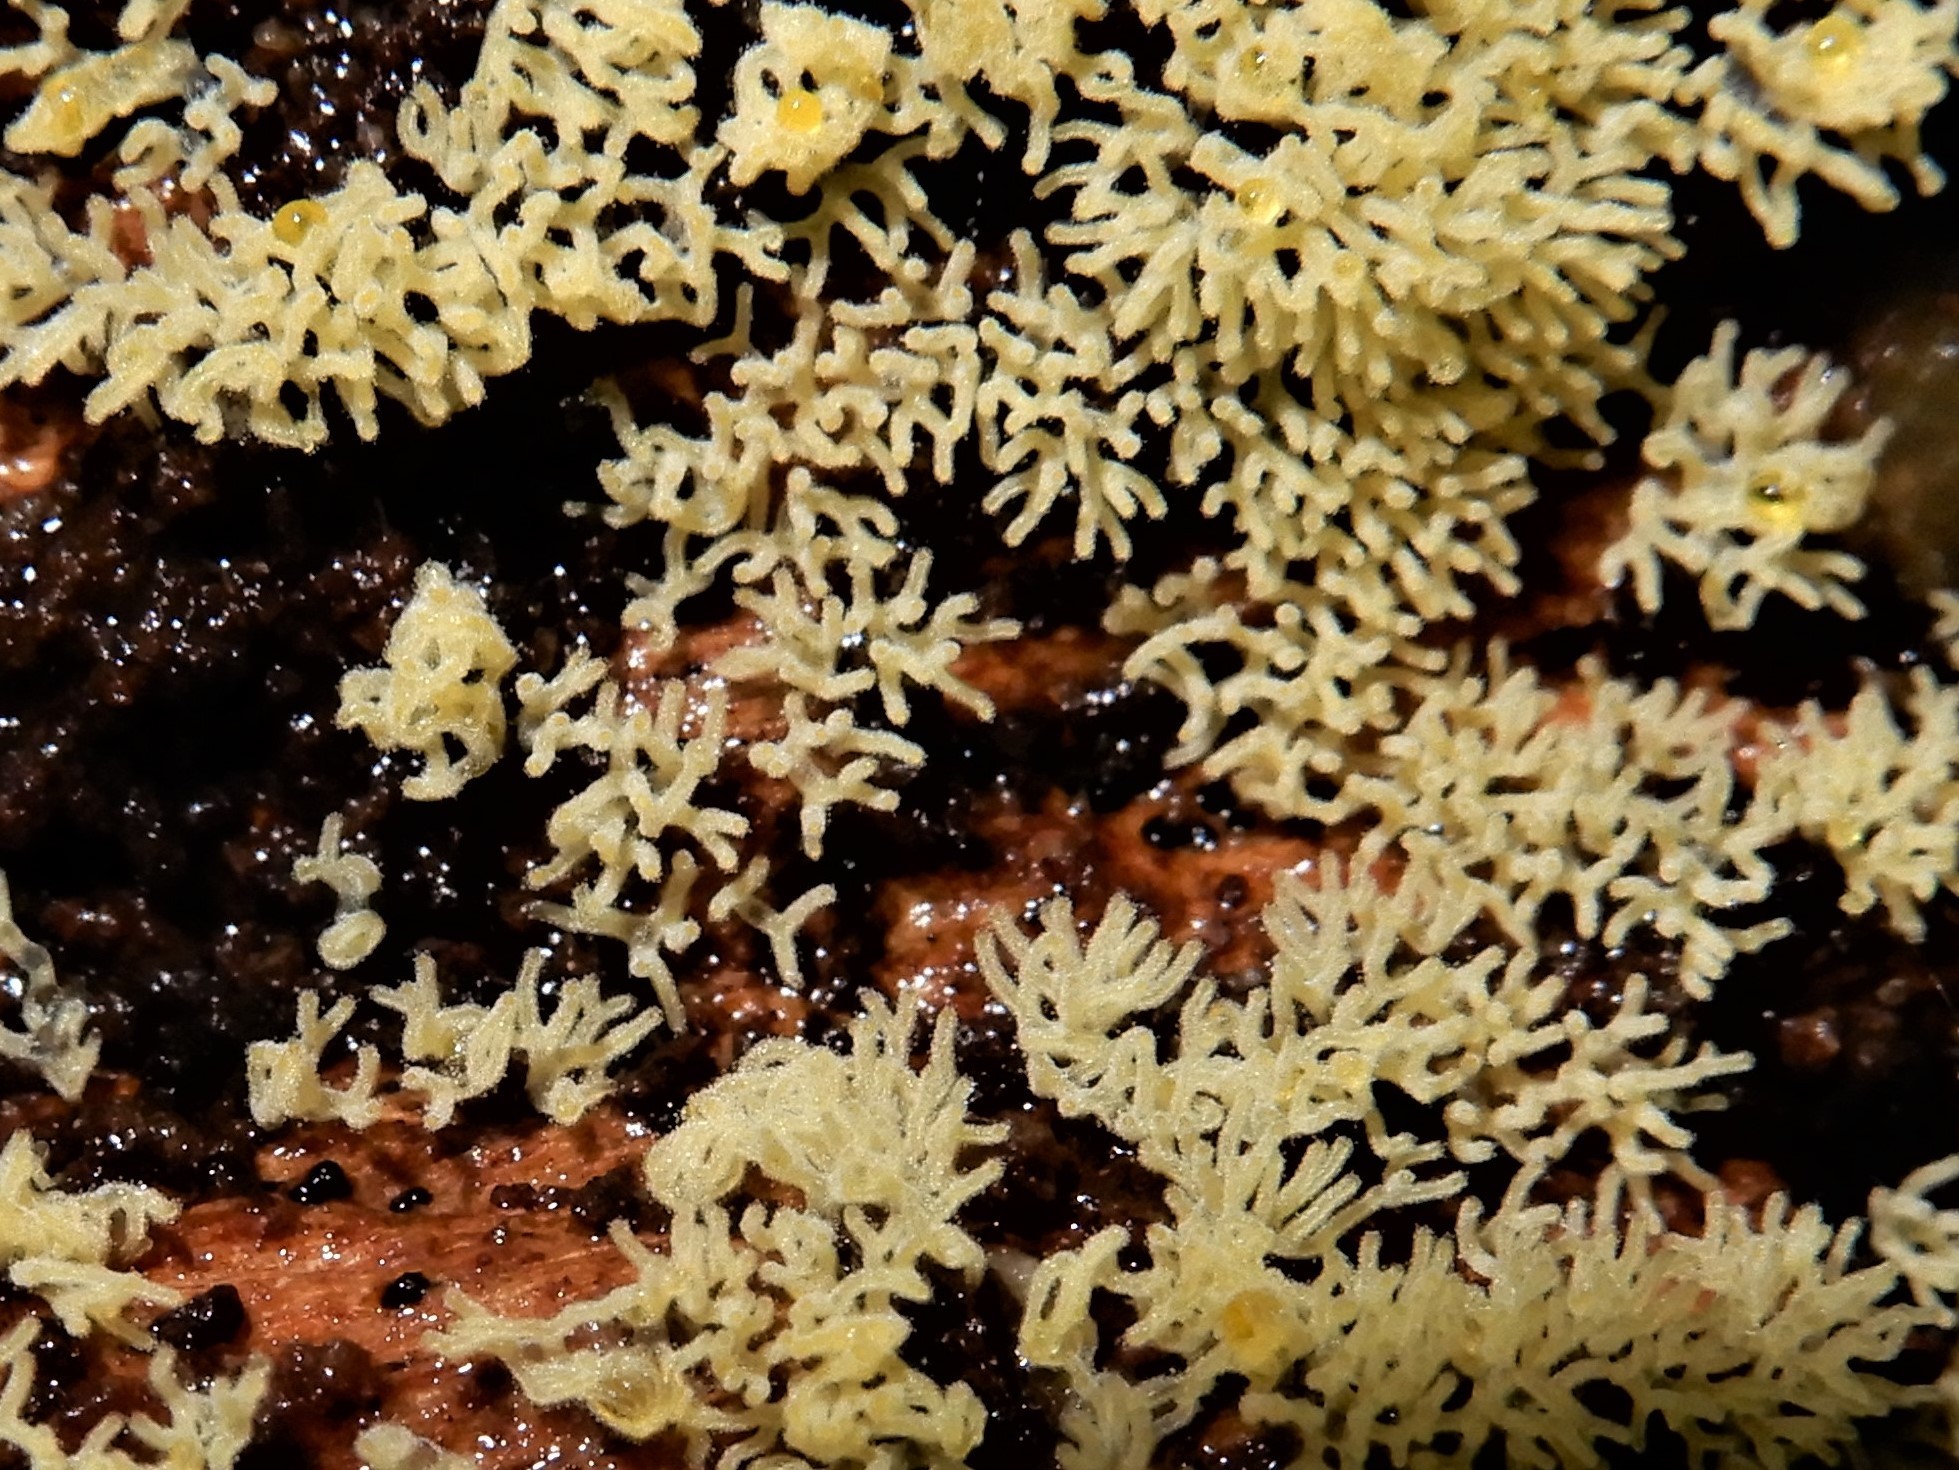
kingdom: Protozoa
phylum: Mycetozoa
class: Protosteliomycetes
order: Ceratiomyxales
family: Ceratiomyxaceae
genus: Ceratiomyxa
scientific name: Ceratiomyxa fruticulosa
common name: Honeycomb coral slime mold
